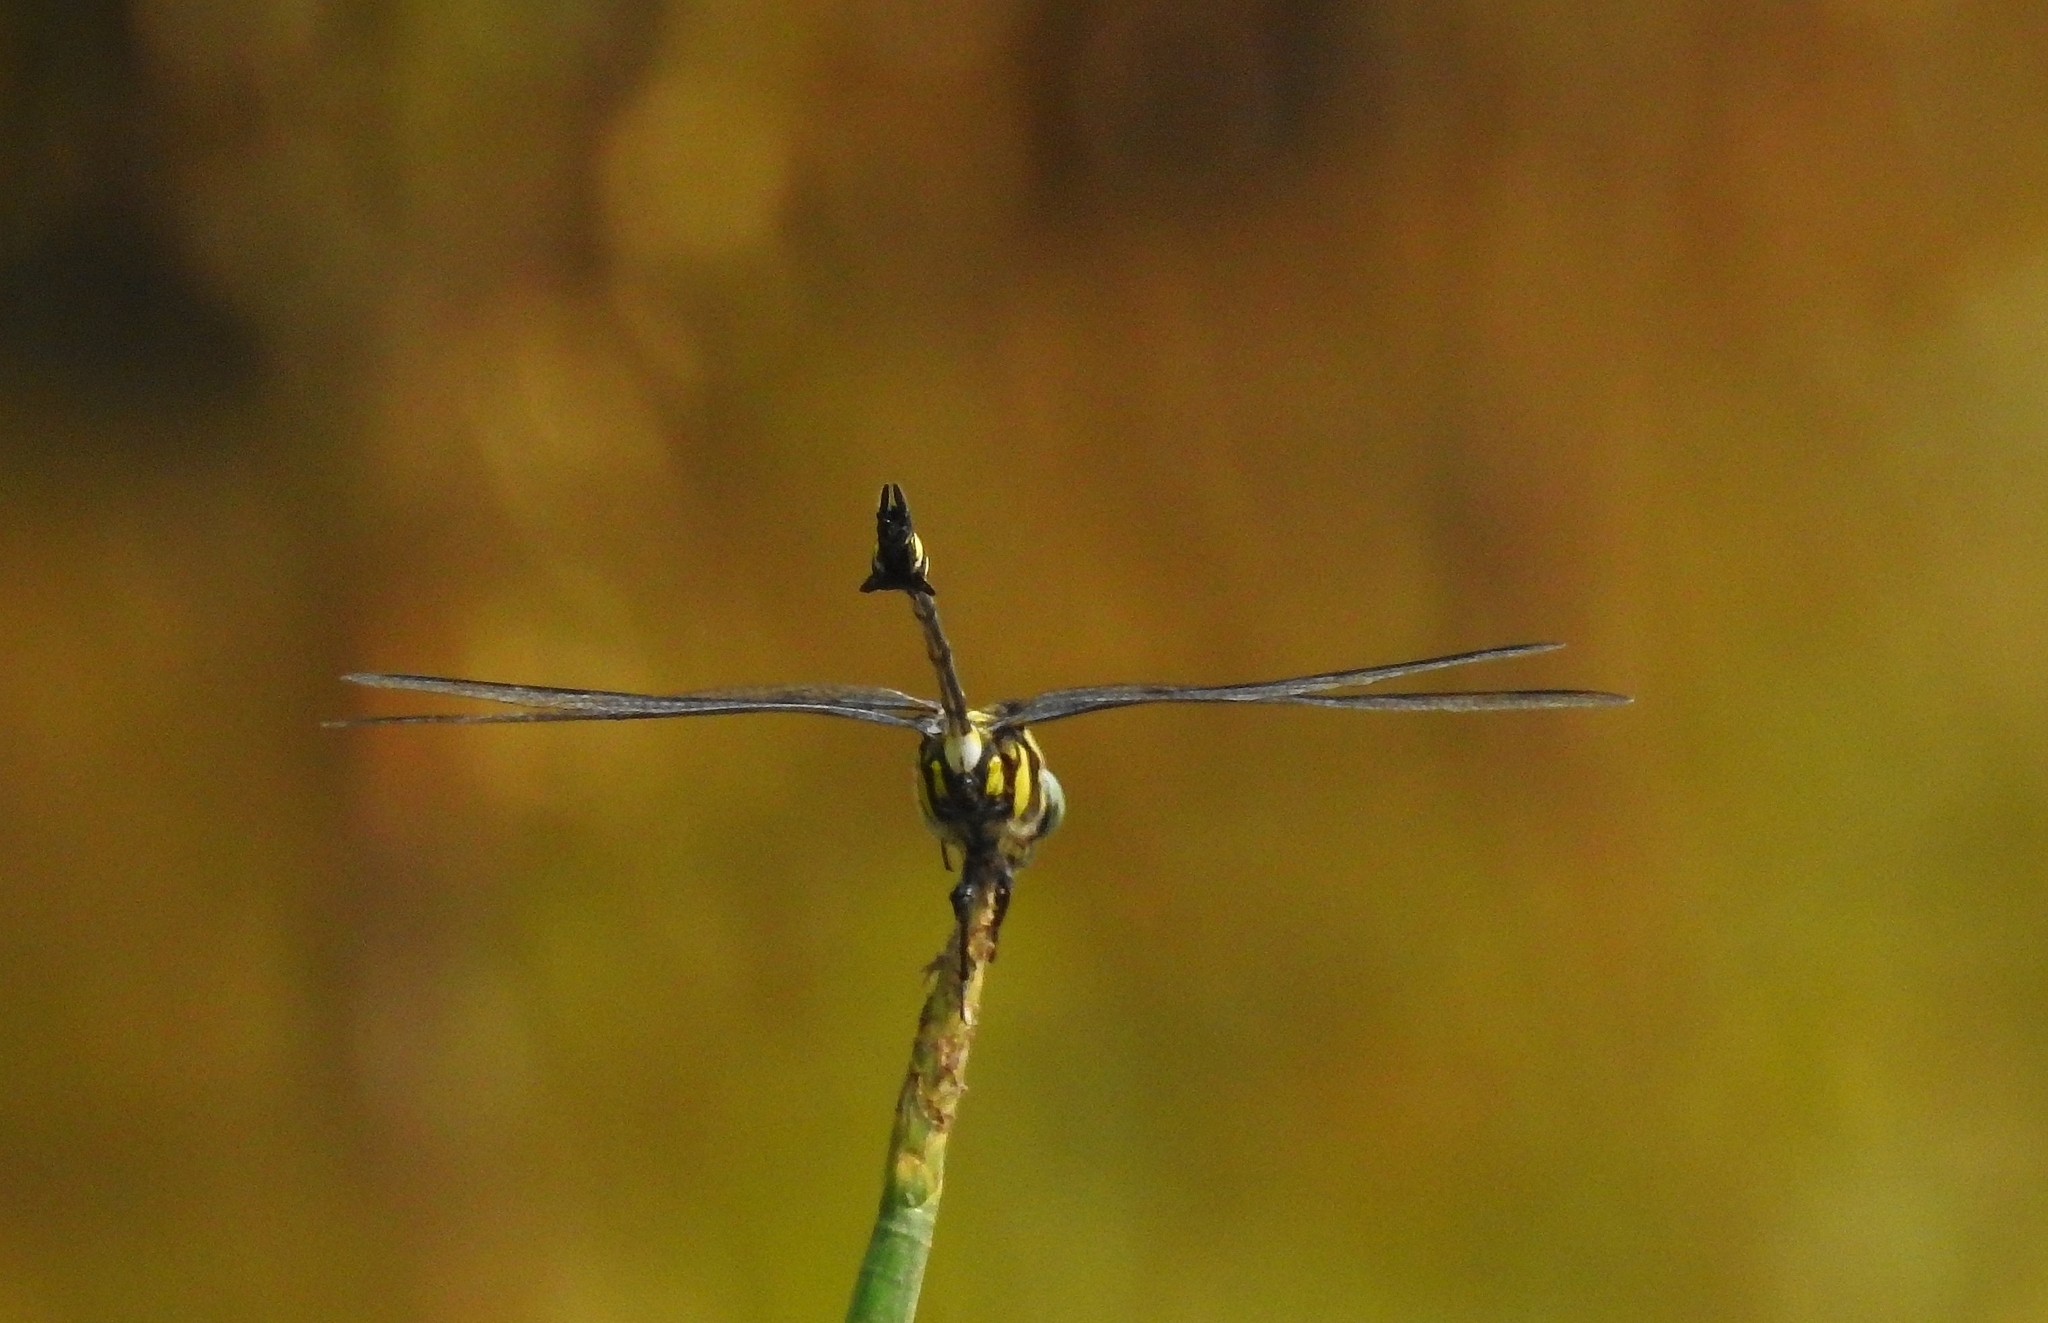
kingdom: Animalia
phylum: Arthropoda
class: Insecta
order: Odonata
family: Gomphidae
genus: Ictinogomphus
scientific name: Ictinogomphus rapax
